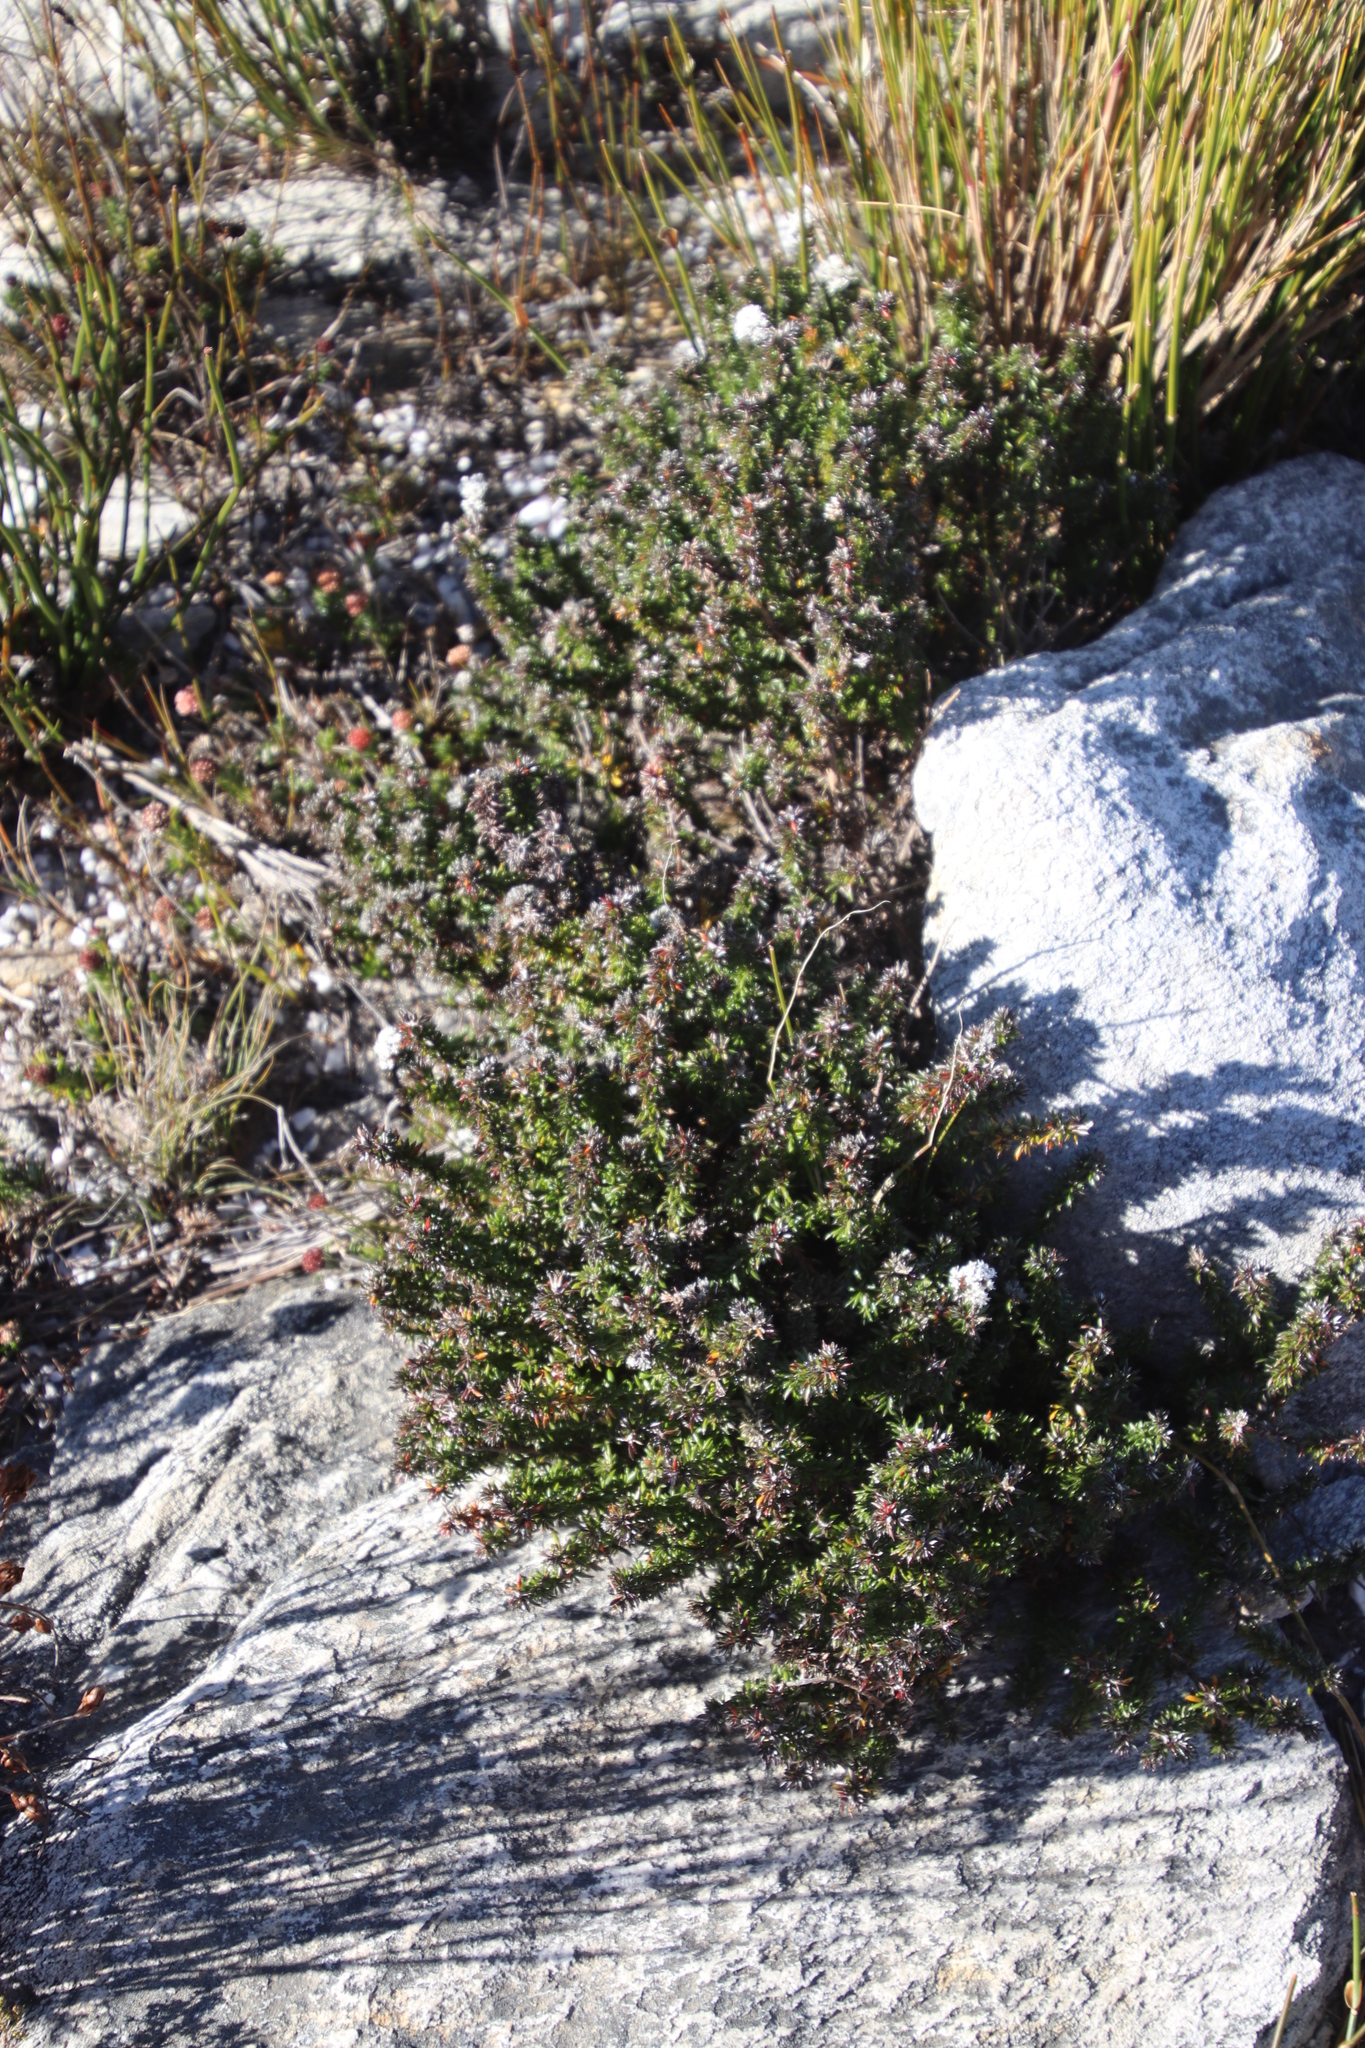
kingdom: Plantae
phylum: Tracheophyta
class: Magnoliopsida
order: Asterales
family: Asteraceae
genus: Metalasia
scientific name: Metalasia montana
